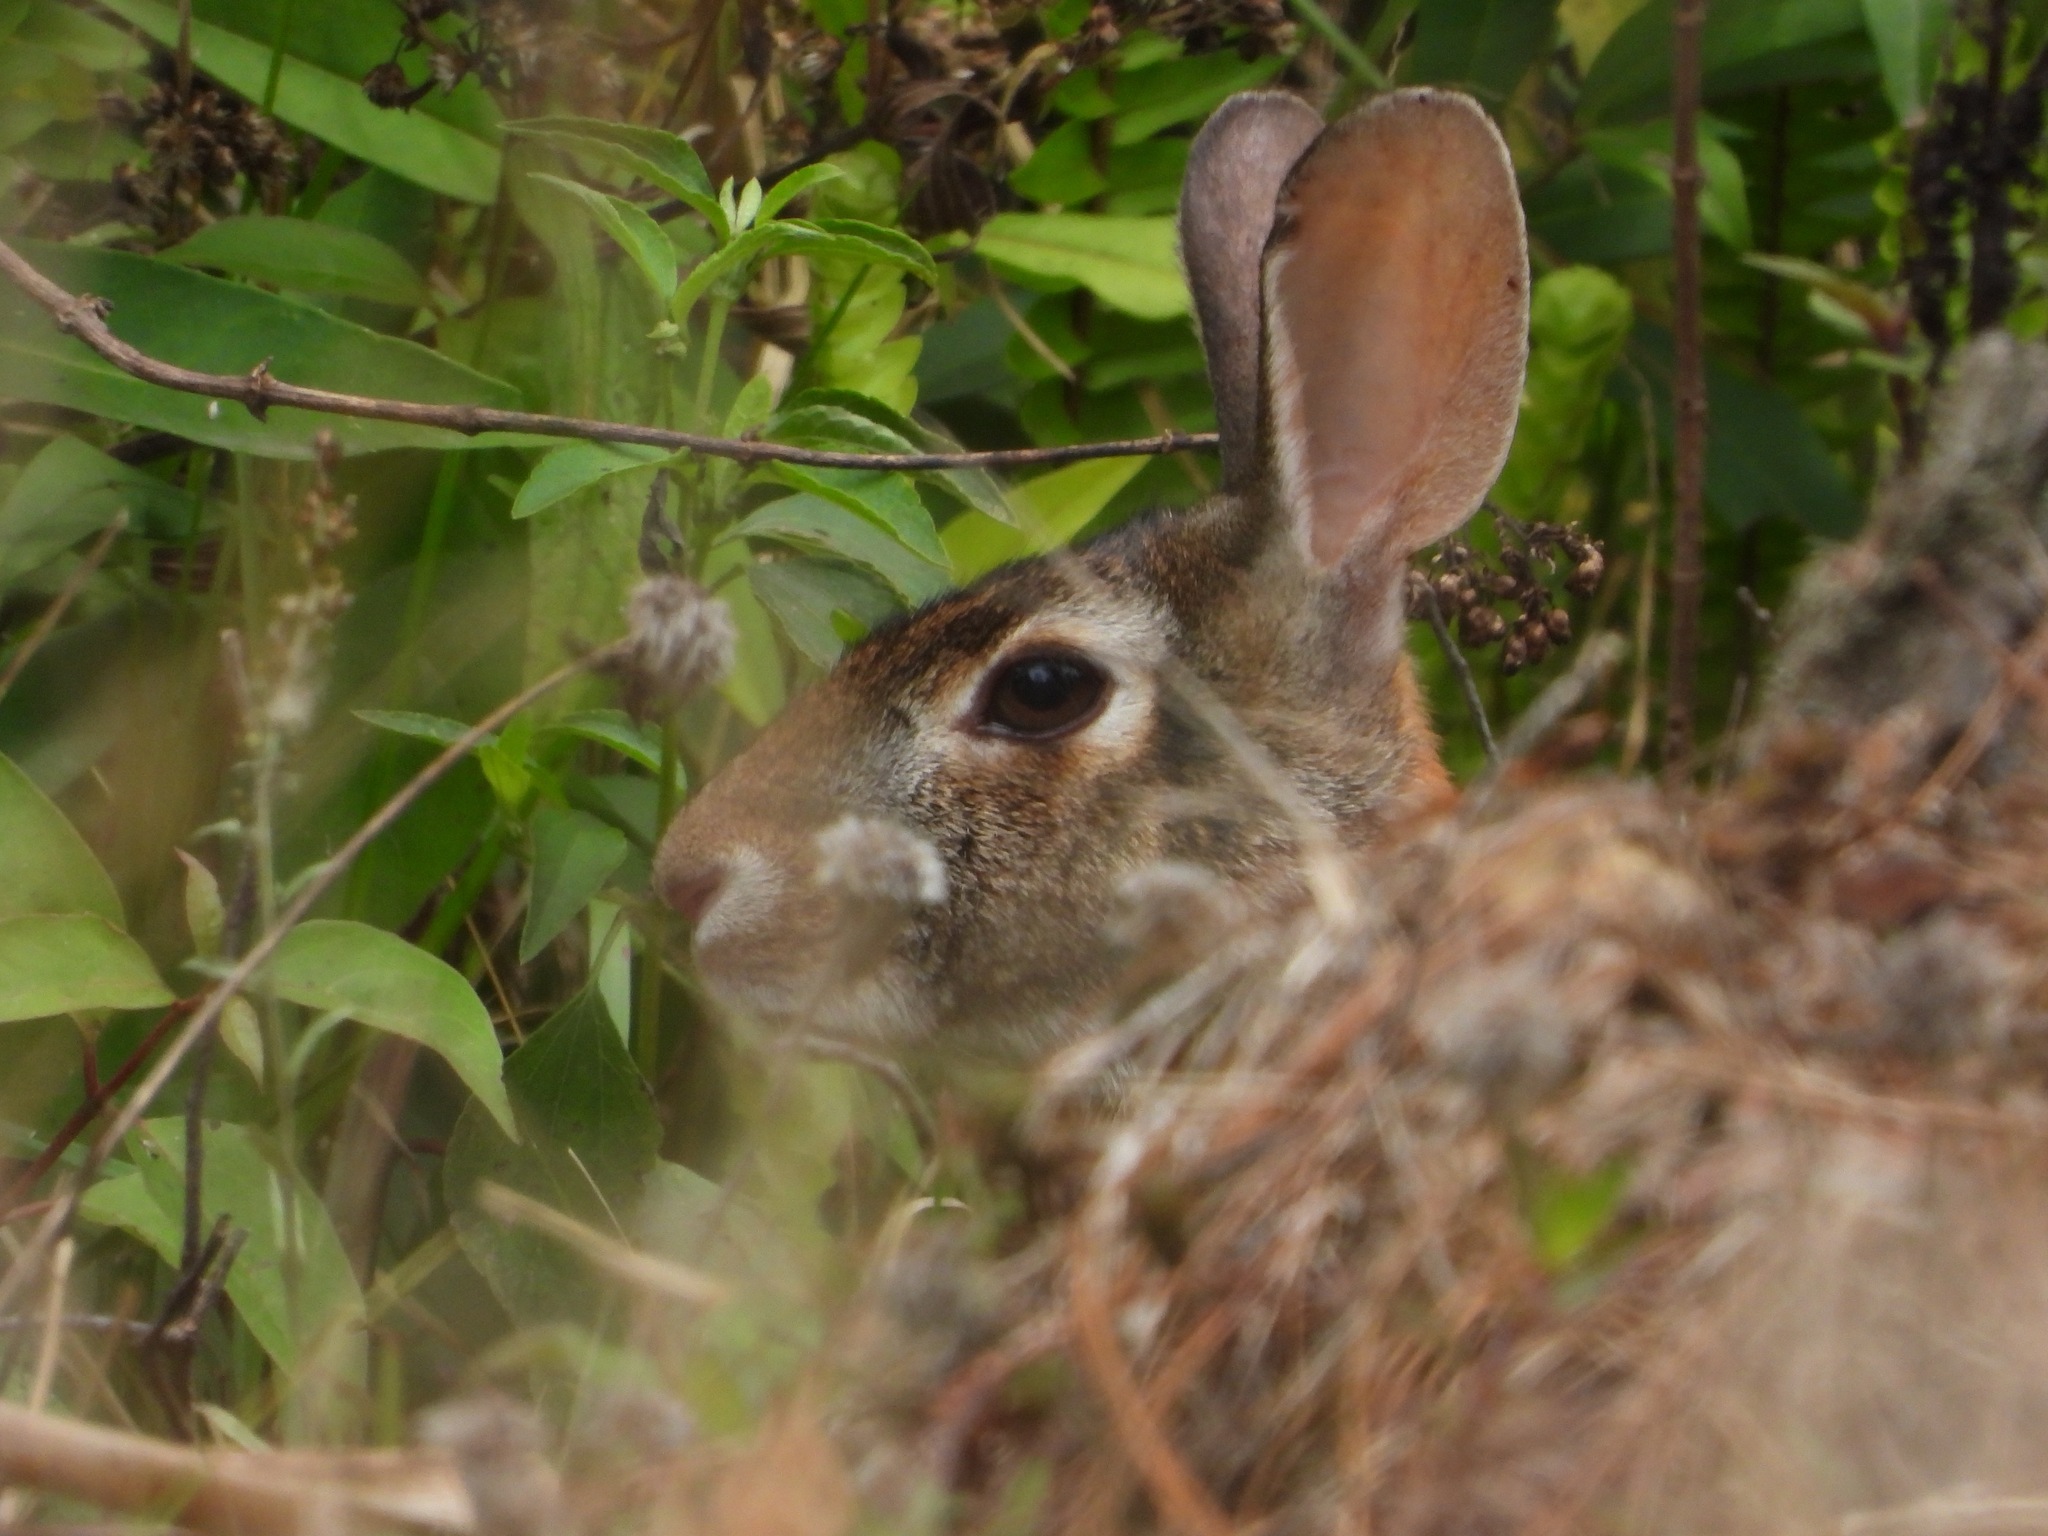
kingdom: Animalia
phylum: Chordata
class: Mammalia
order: Lagomorpha
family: Leporidae
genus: Sylvilagus
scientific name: Sylvilagus floridanus
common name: Eastern cottontail
